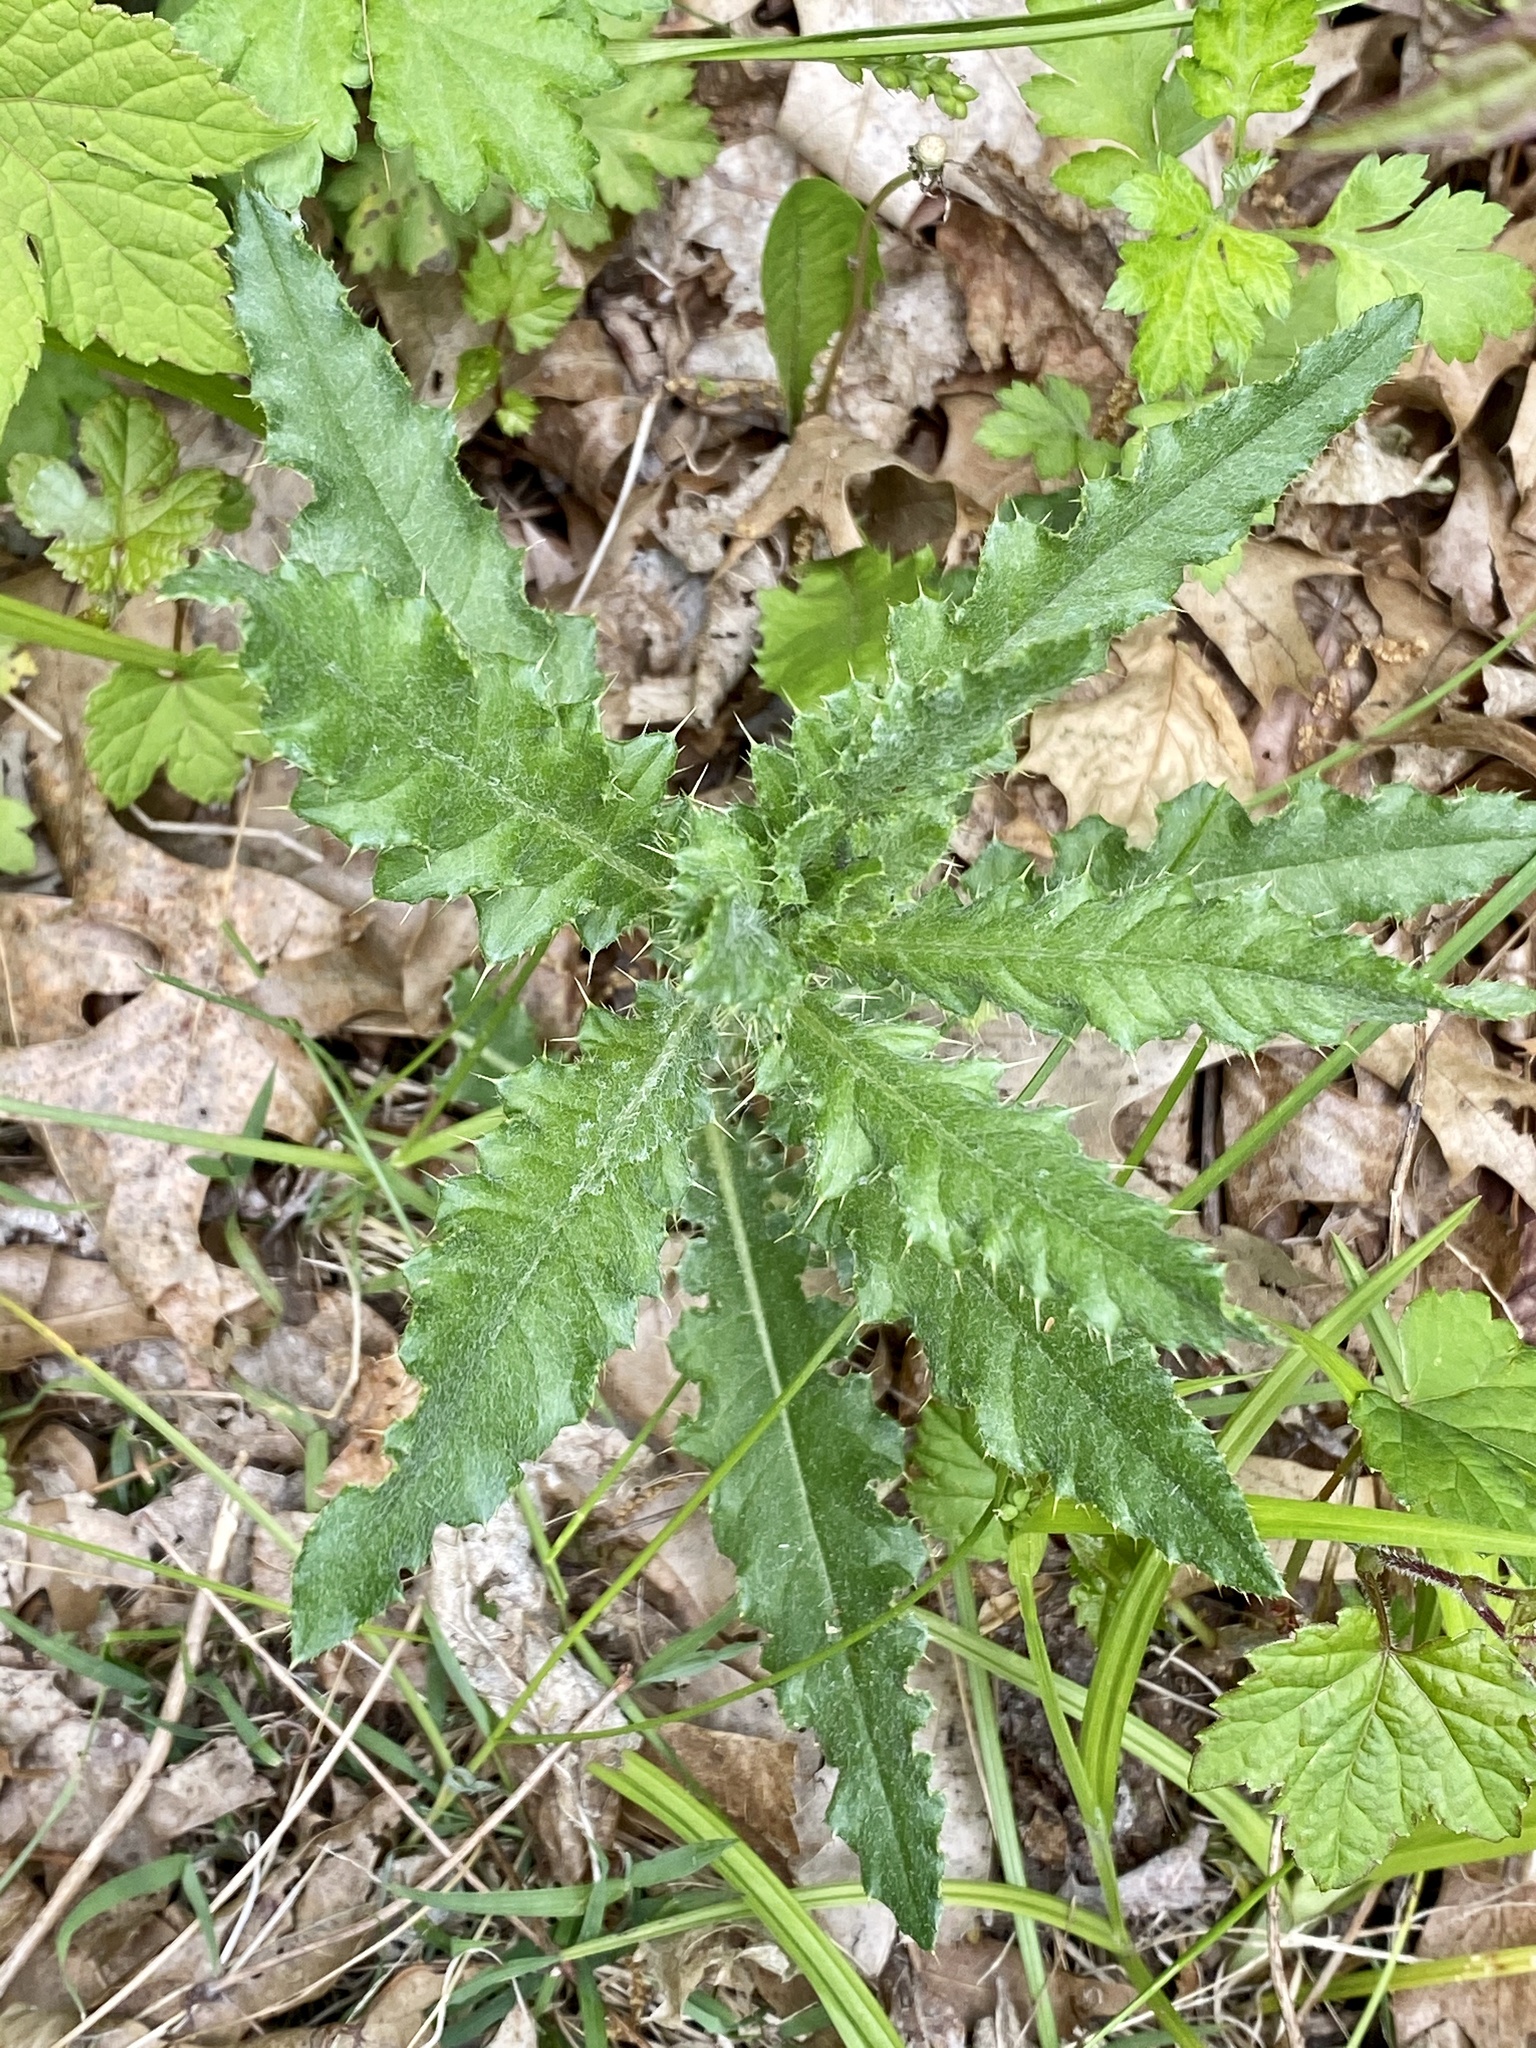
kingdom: Plantae
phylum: Tracheophyta
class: Magnoliopsida
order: Asterales
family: Asteraceae
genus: Cirsium
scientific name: Cirsium arvense
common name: Creeping thistle
